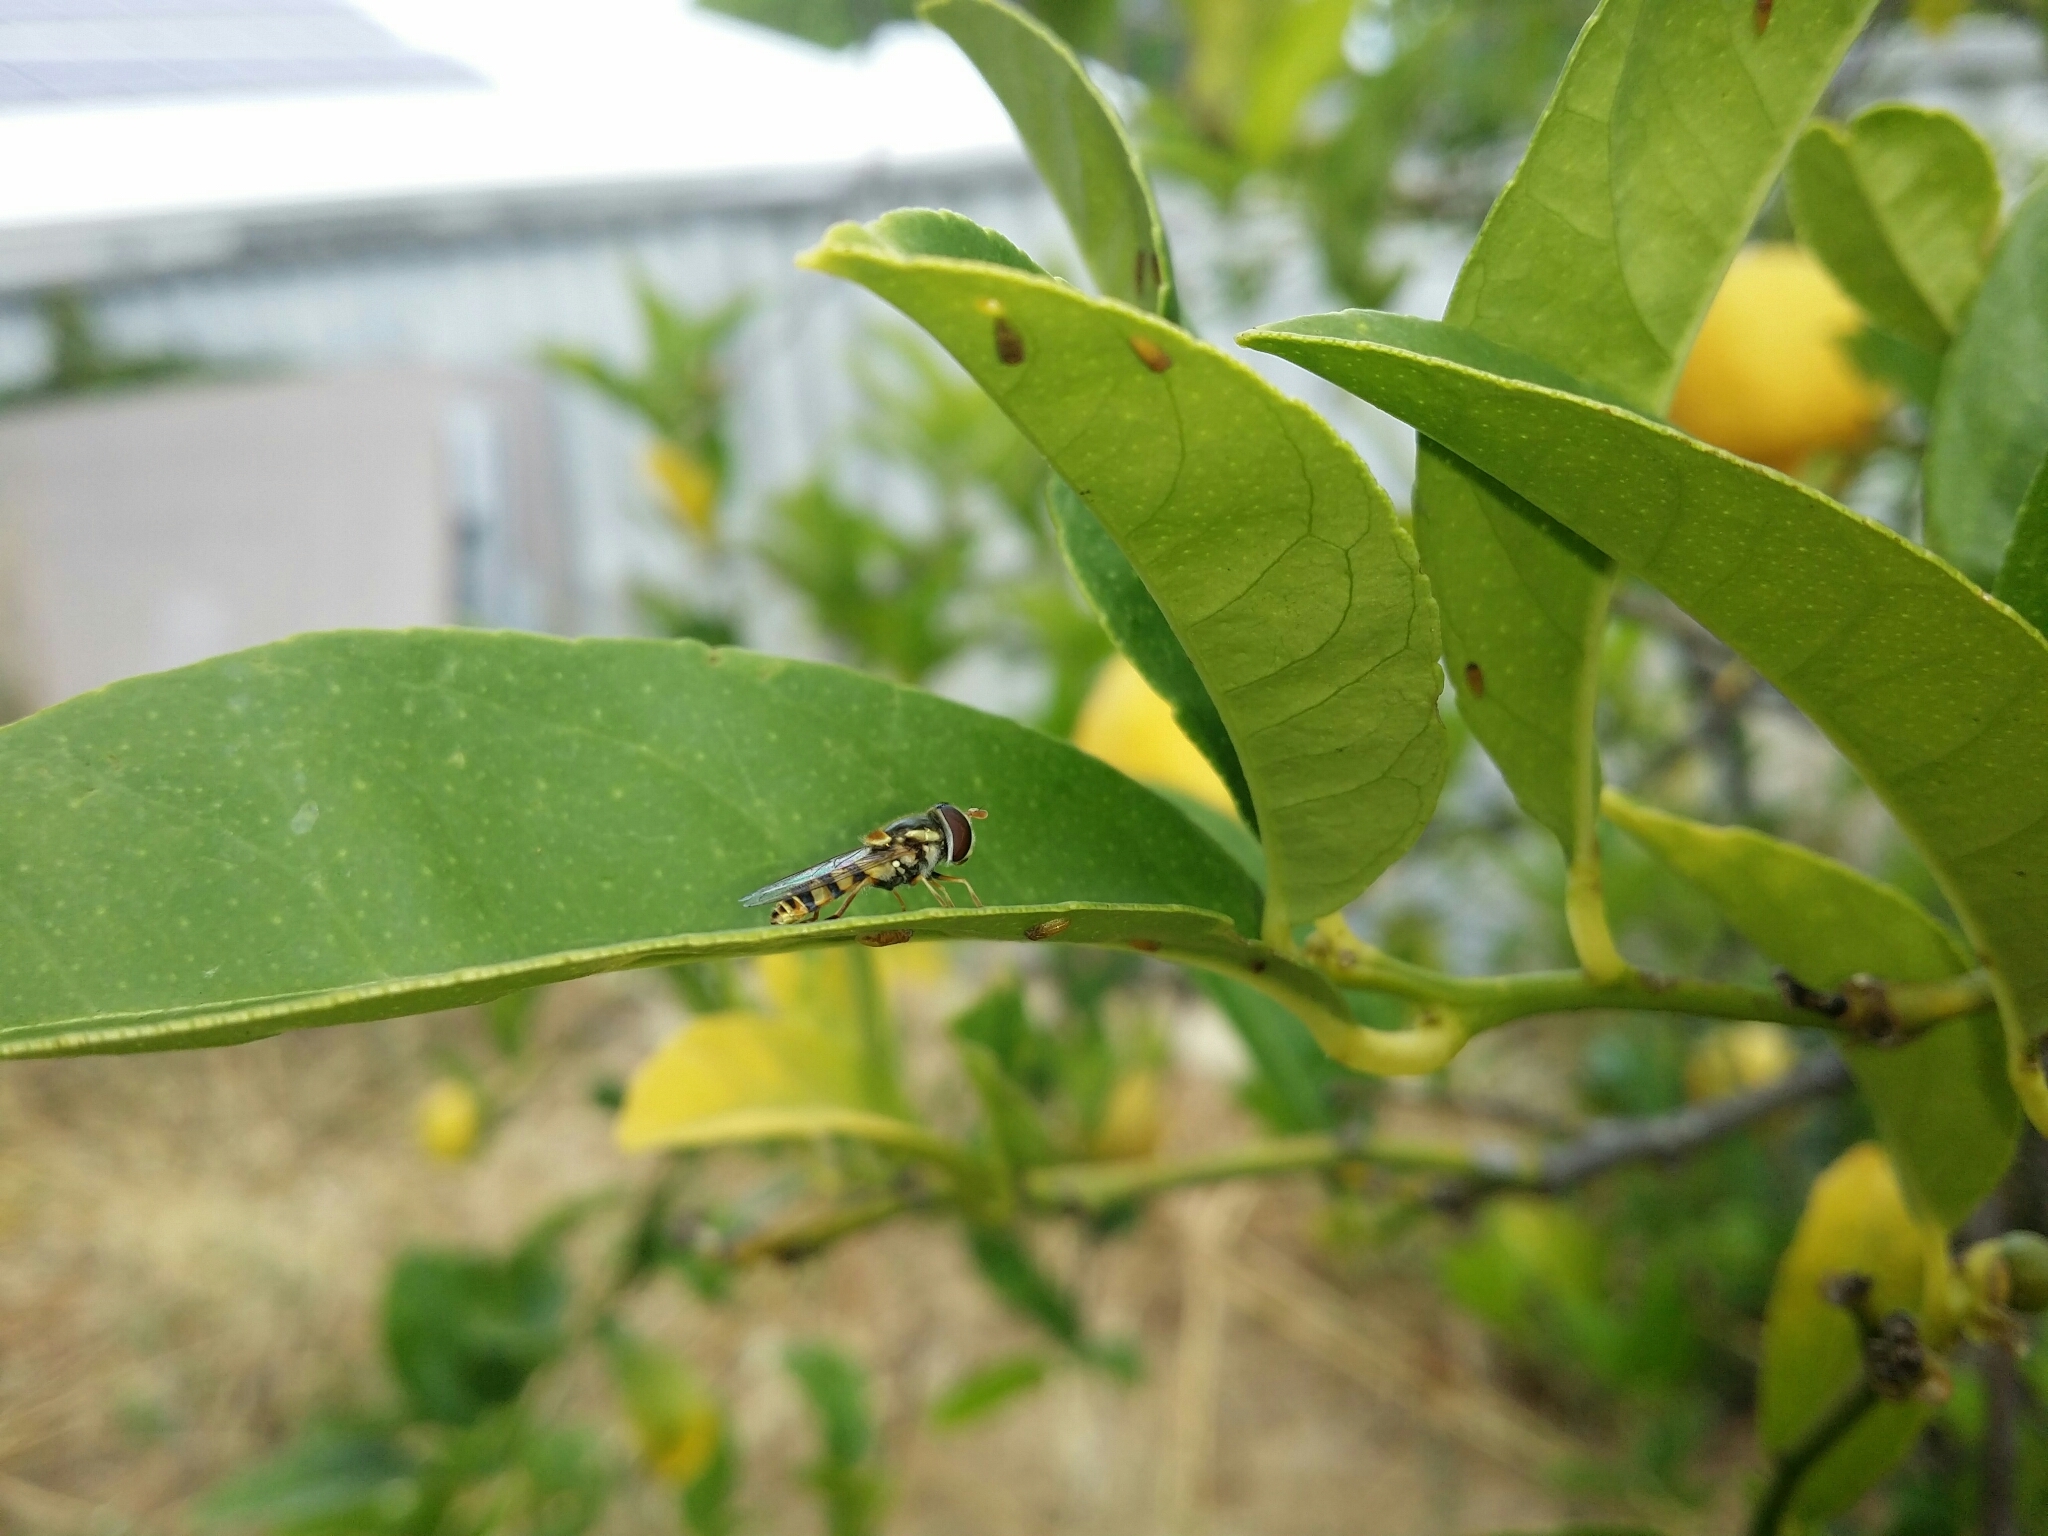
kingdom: Animalia
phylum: Arthropoda
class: Insecta
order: Diptera
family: Syrphidae
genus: Simosyrphus
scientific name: Simosyrphus grandicornis
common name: Hoverfly
